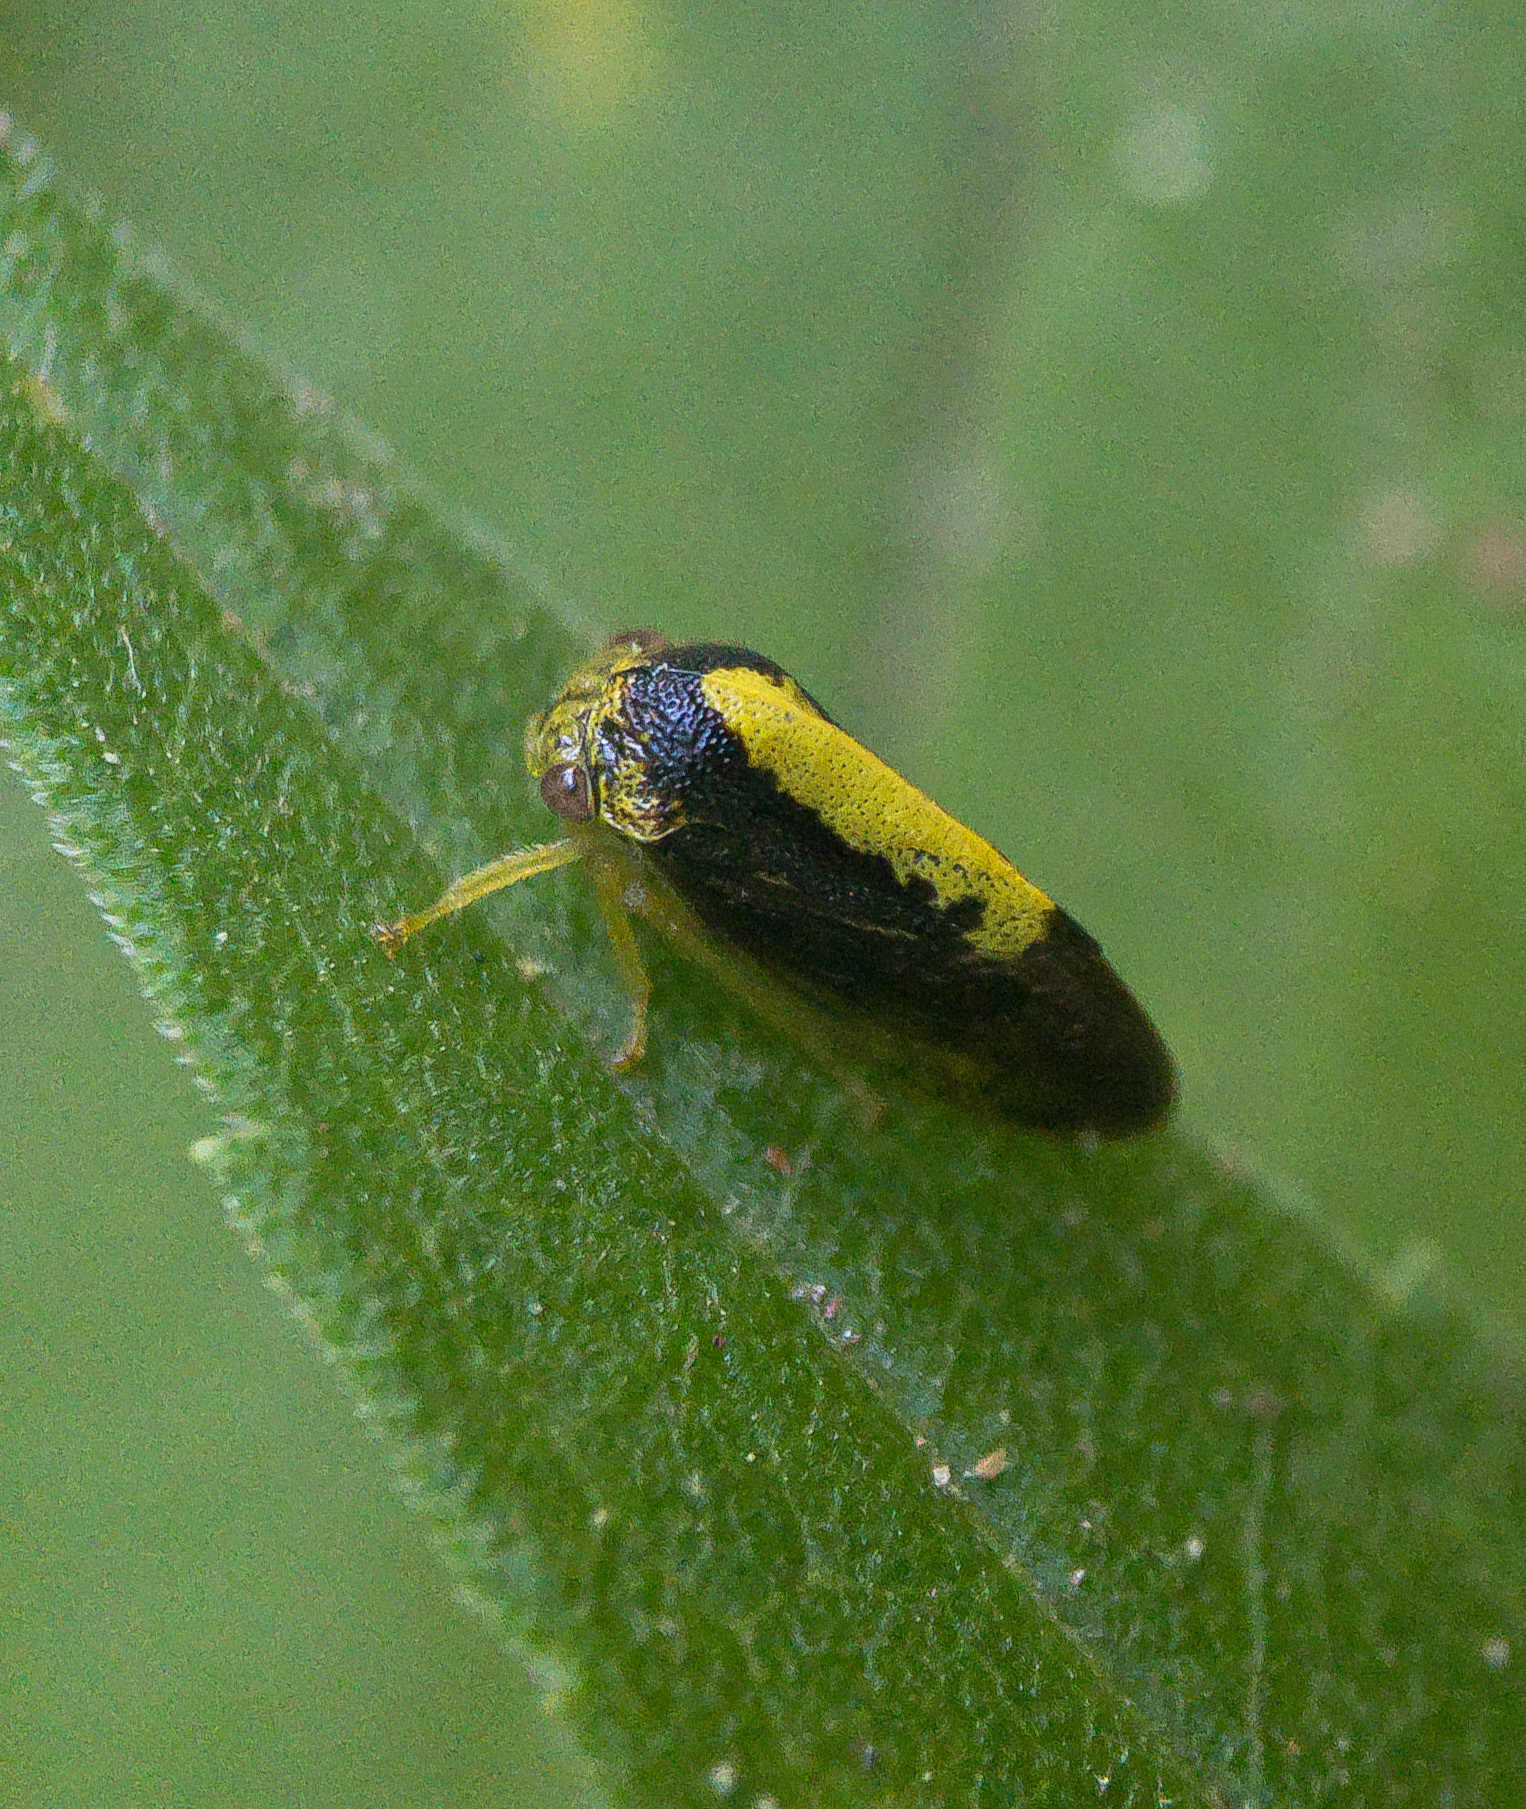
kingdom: Animalia
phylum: Arthropoda
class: Insecta
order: Hemiptera
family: Membracidae
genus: Atymna
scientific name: Atymna querci
